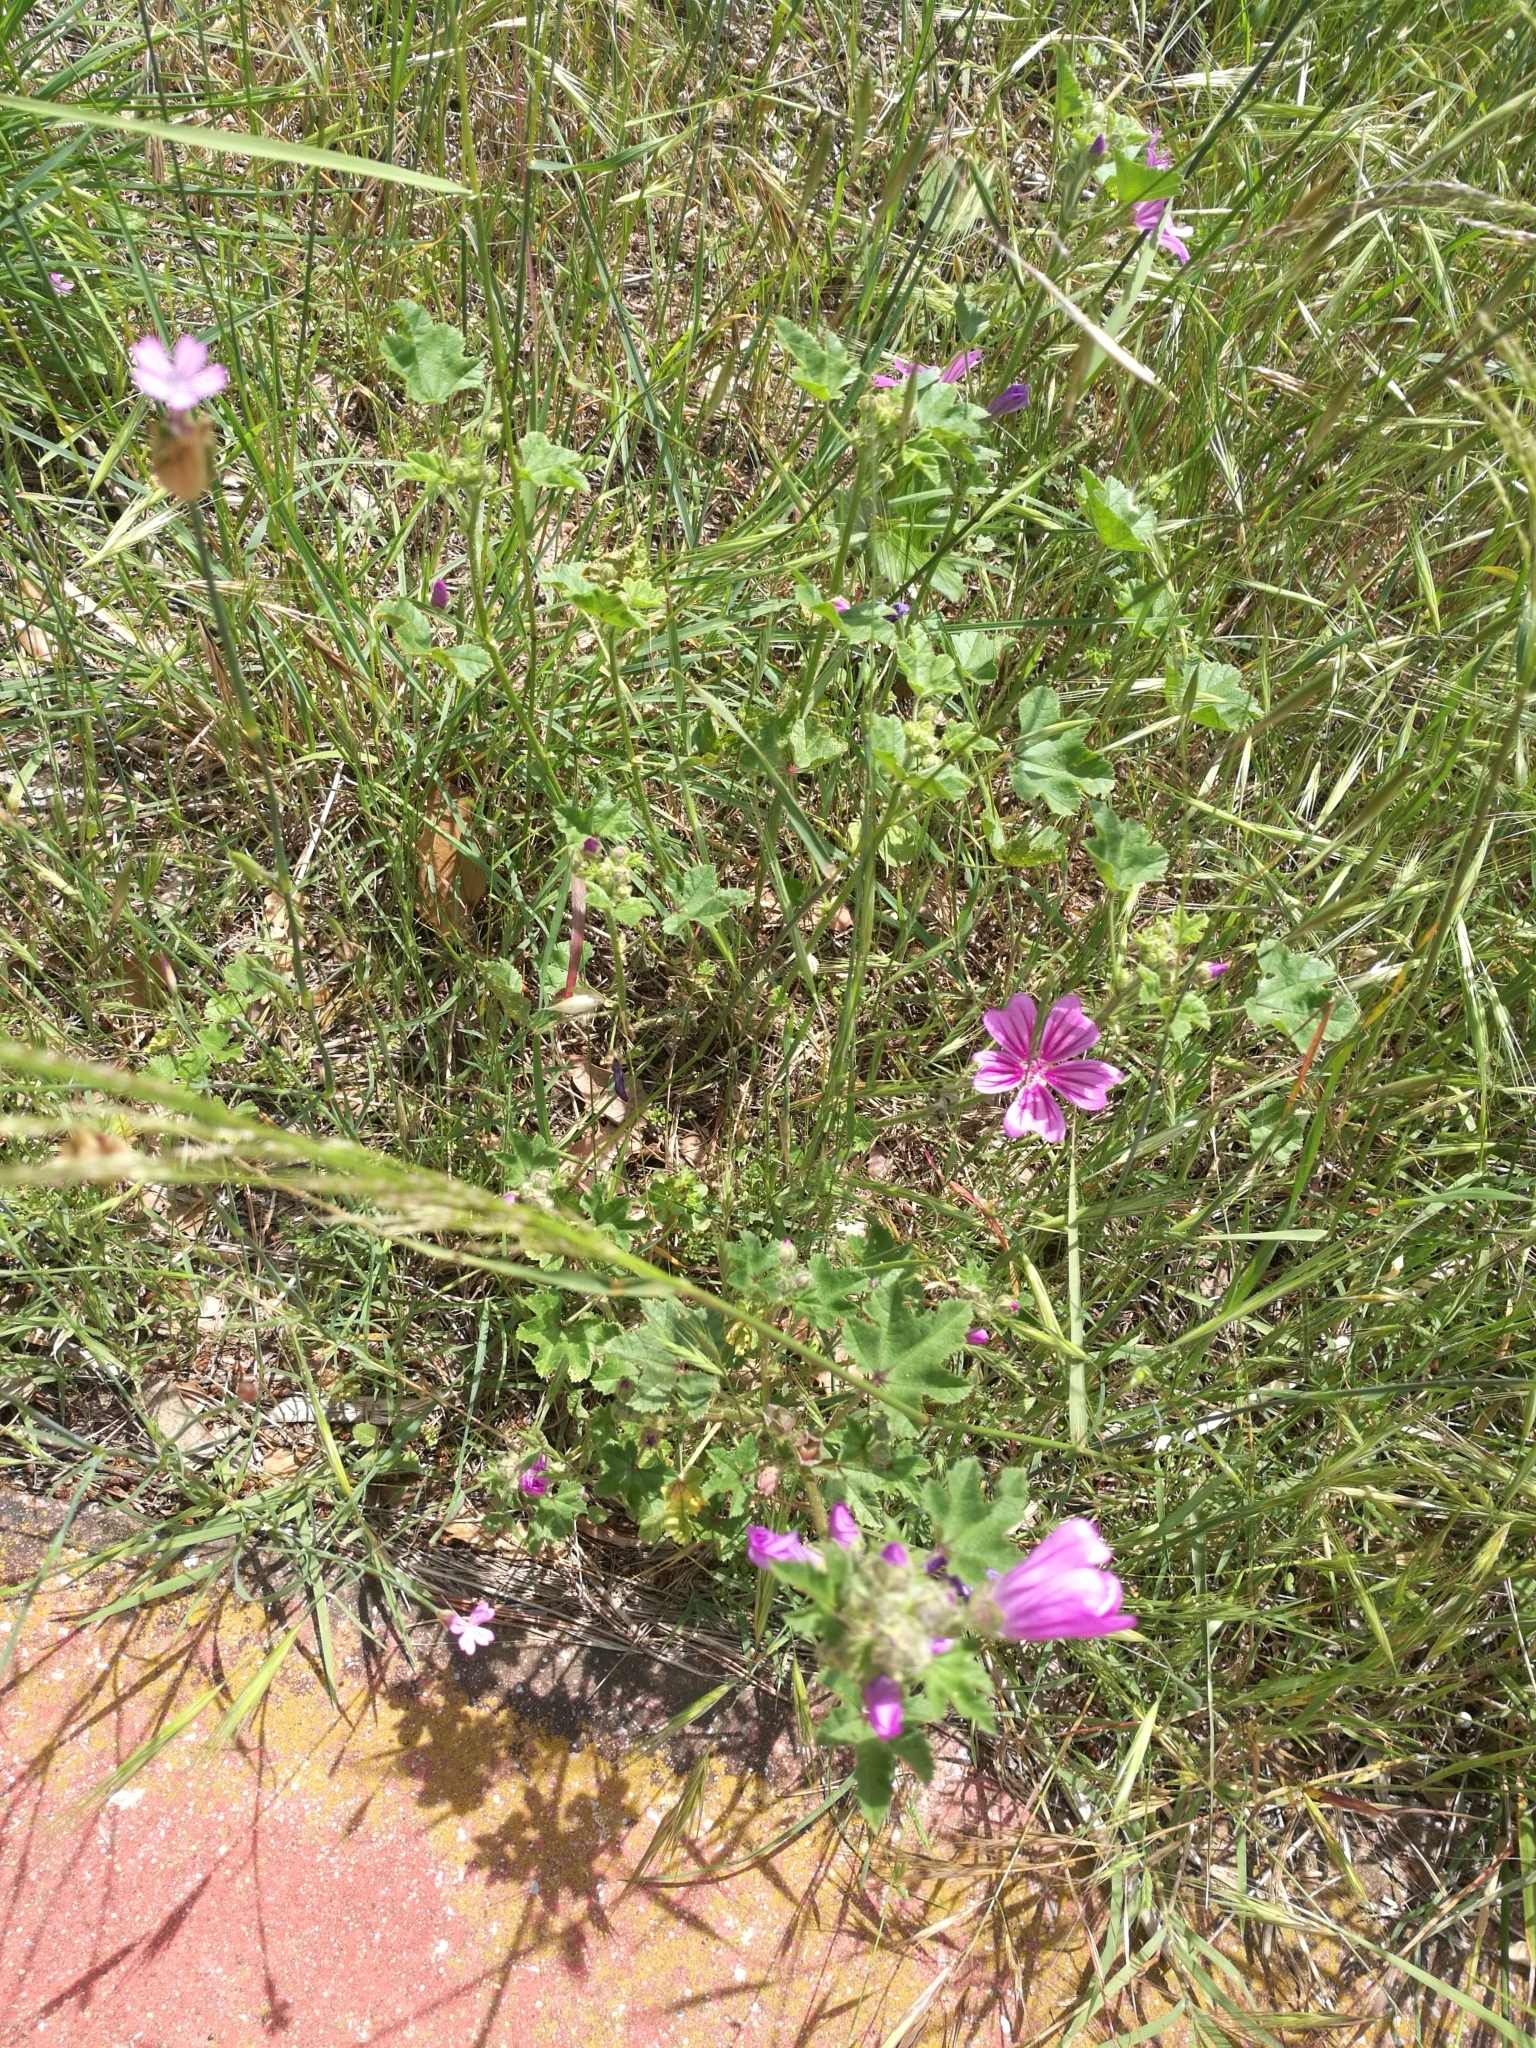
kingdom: Plantae
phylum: Tracheophyta
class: Magnoliopsida
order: Malvales
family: Malvaceae
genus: Malva
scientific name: Malva sylvestris
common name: Common mallow
